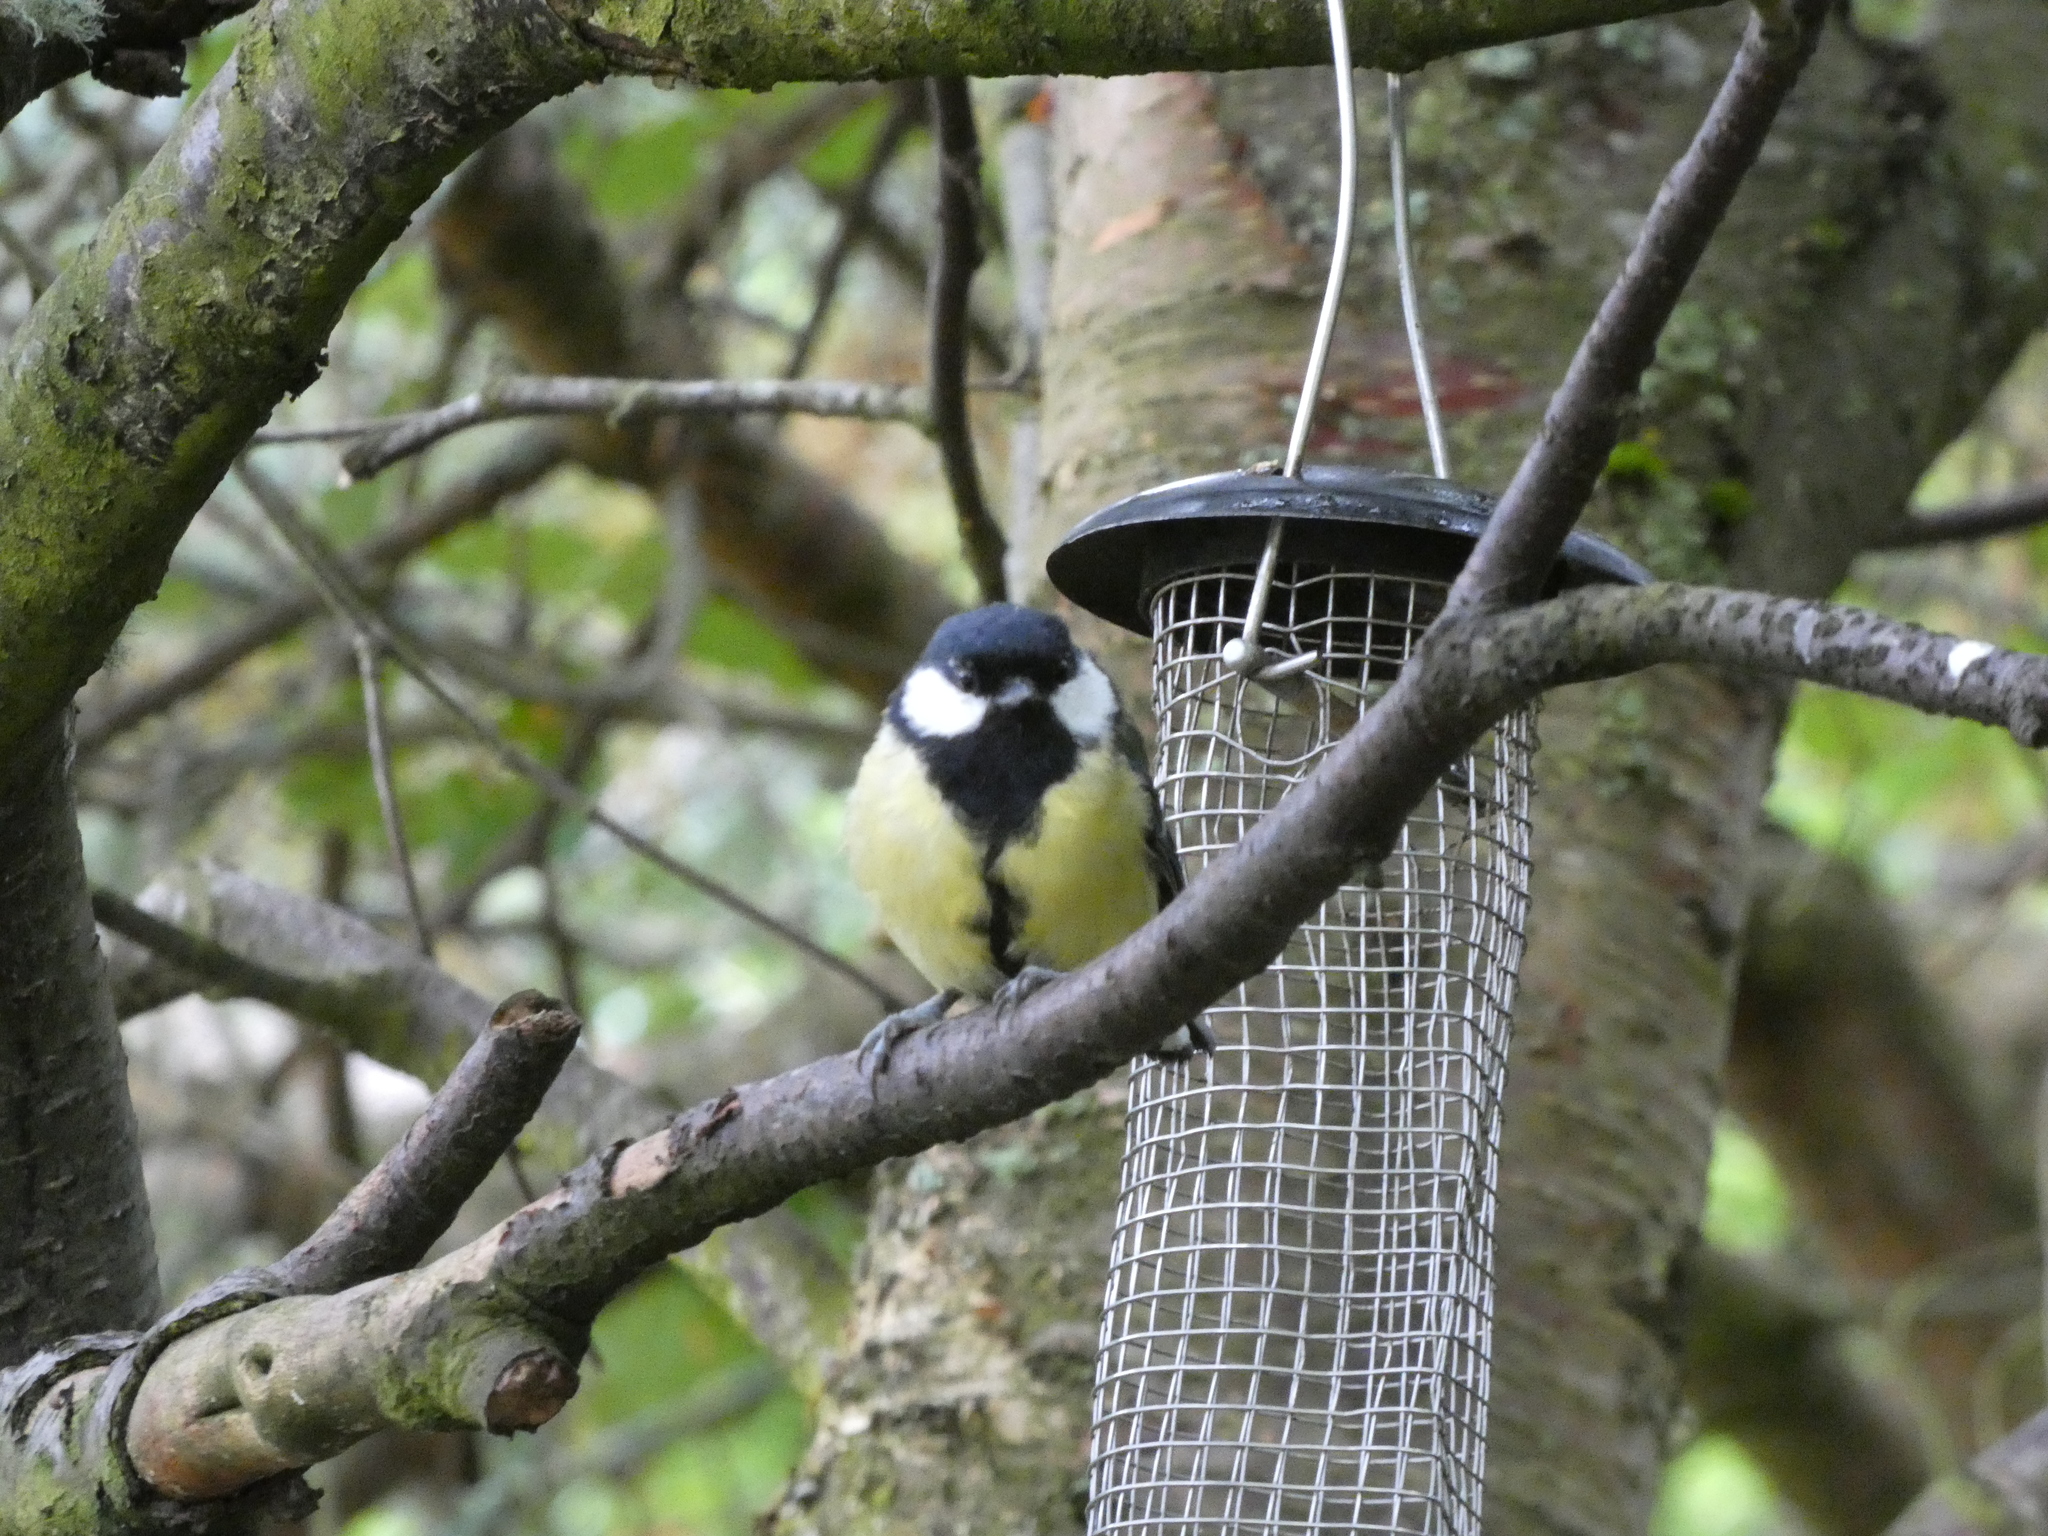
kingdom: Animalia
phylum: Chordata
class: Aves
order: Passeriformes
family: Paridae
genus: Parus
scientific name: Parus major
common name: Great tit
